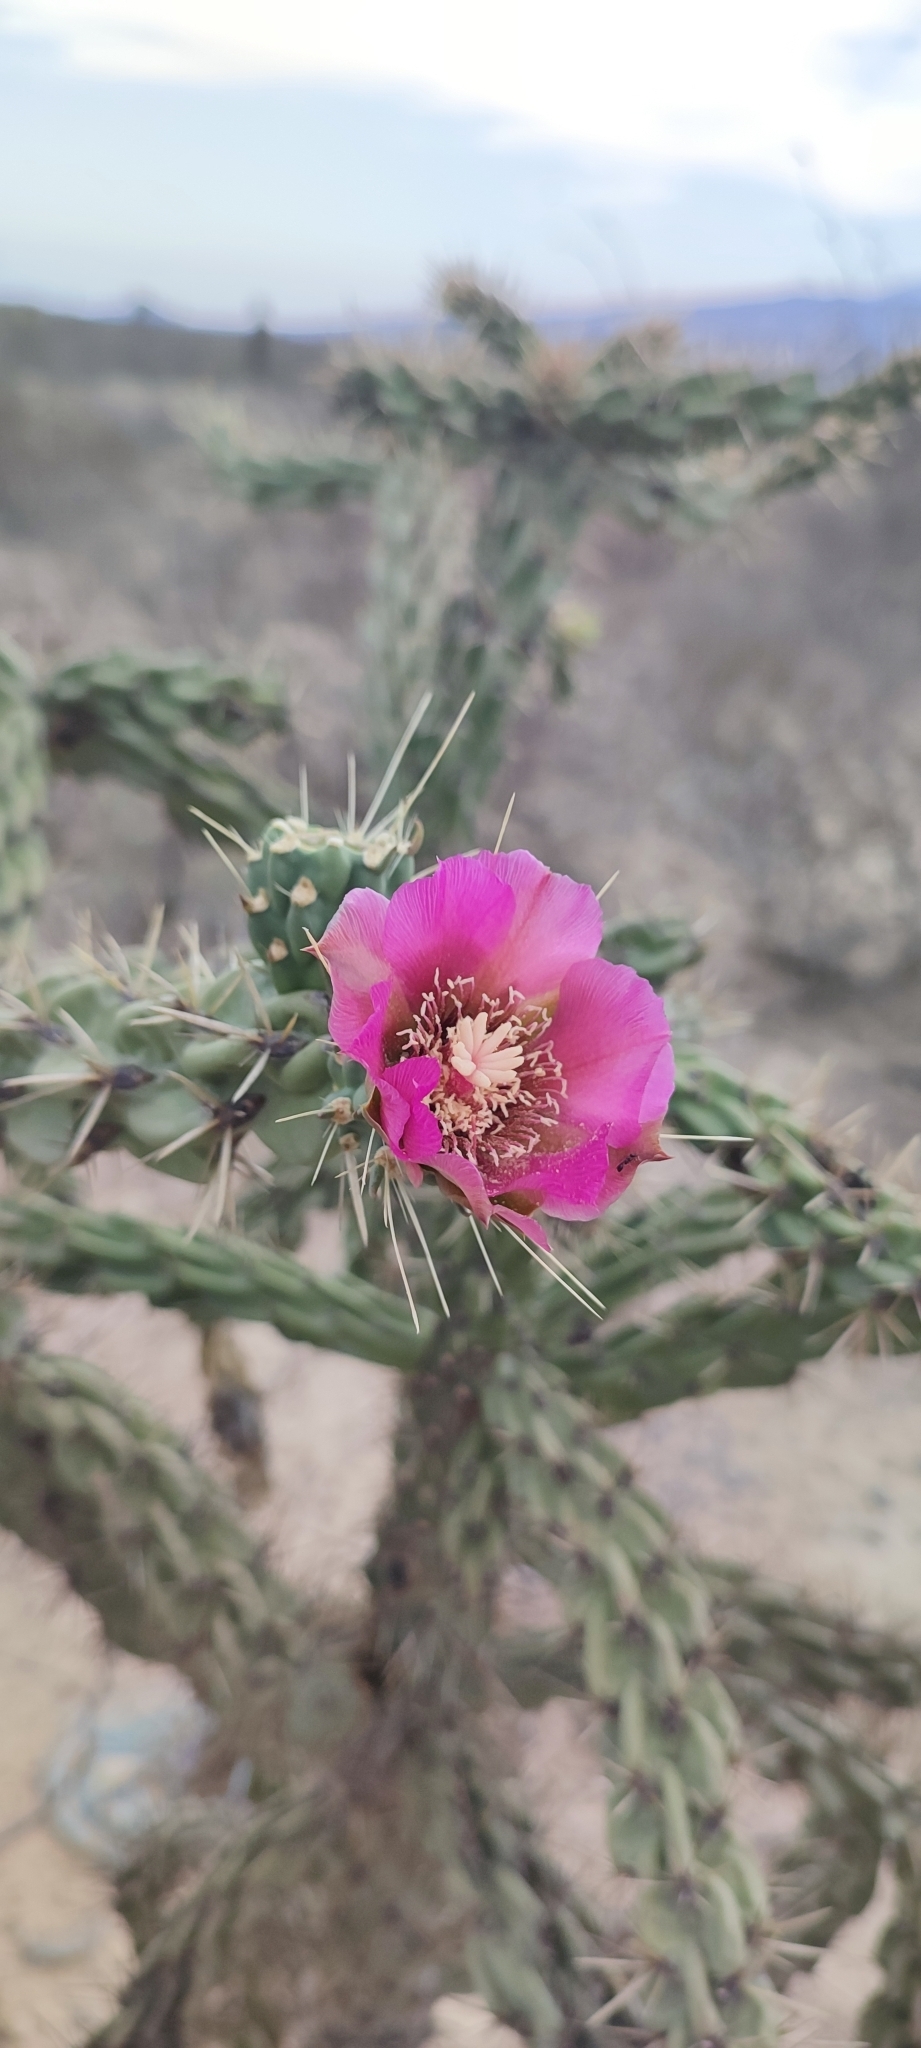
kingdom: Plantae
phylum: Tracheophyta
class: Magnoliopsida
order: Caryophyllales
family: Cactaceae
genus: Cylindropuntia
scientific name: Cylindropuntia imbricata
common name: Candelabrum cactus
